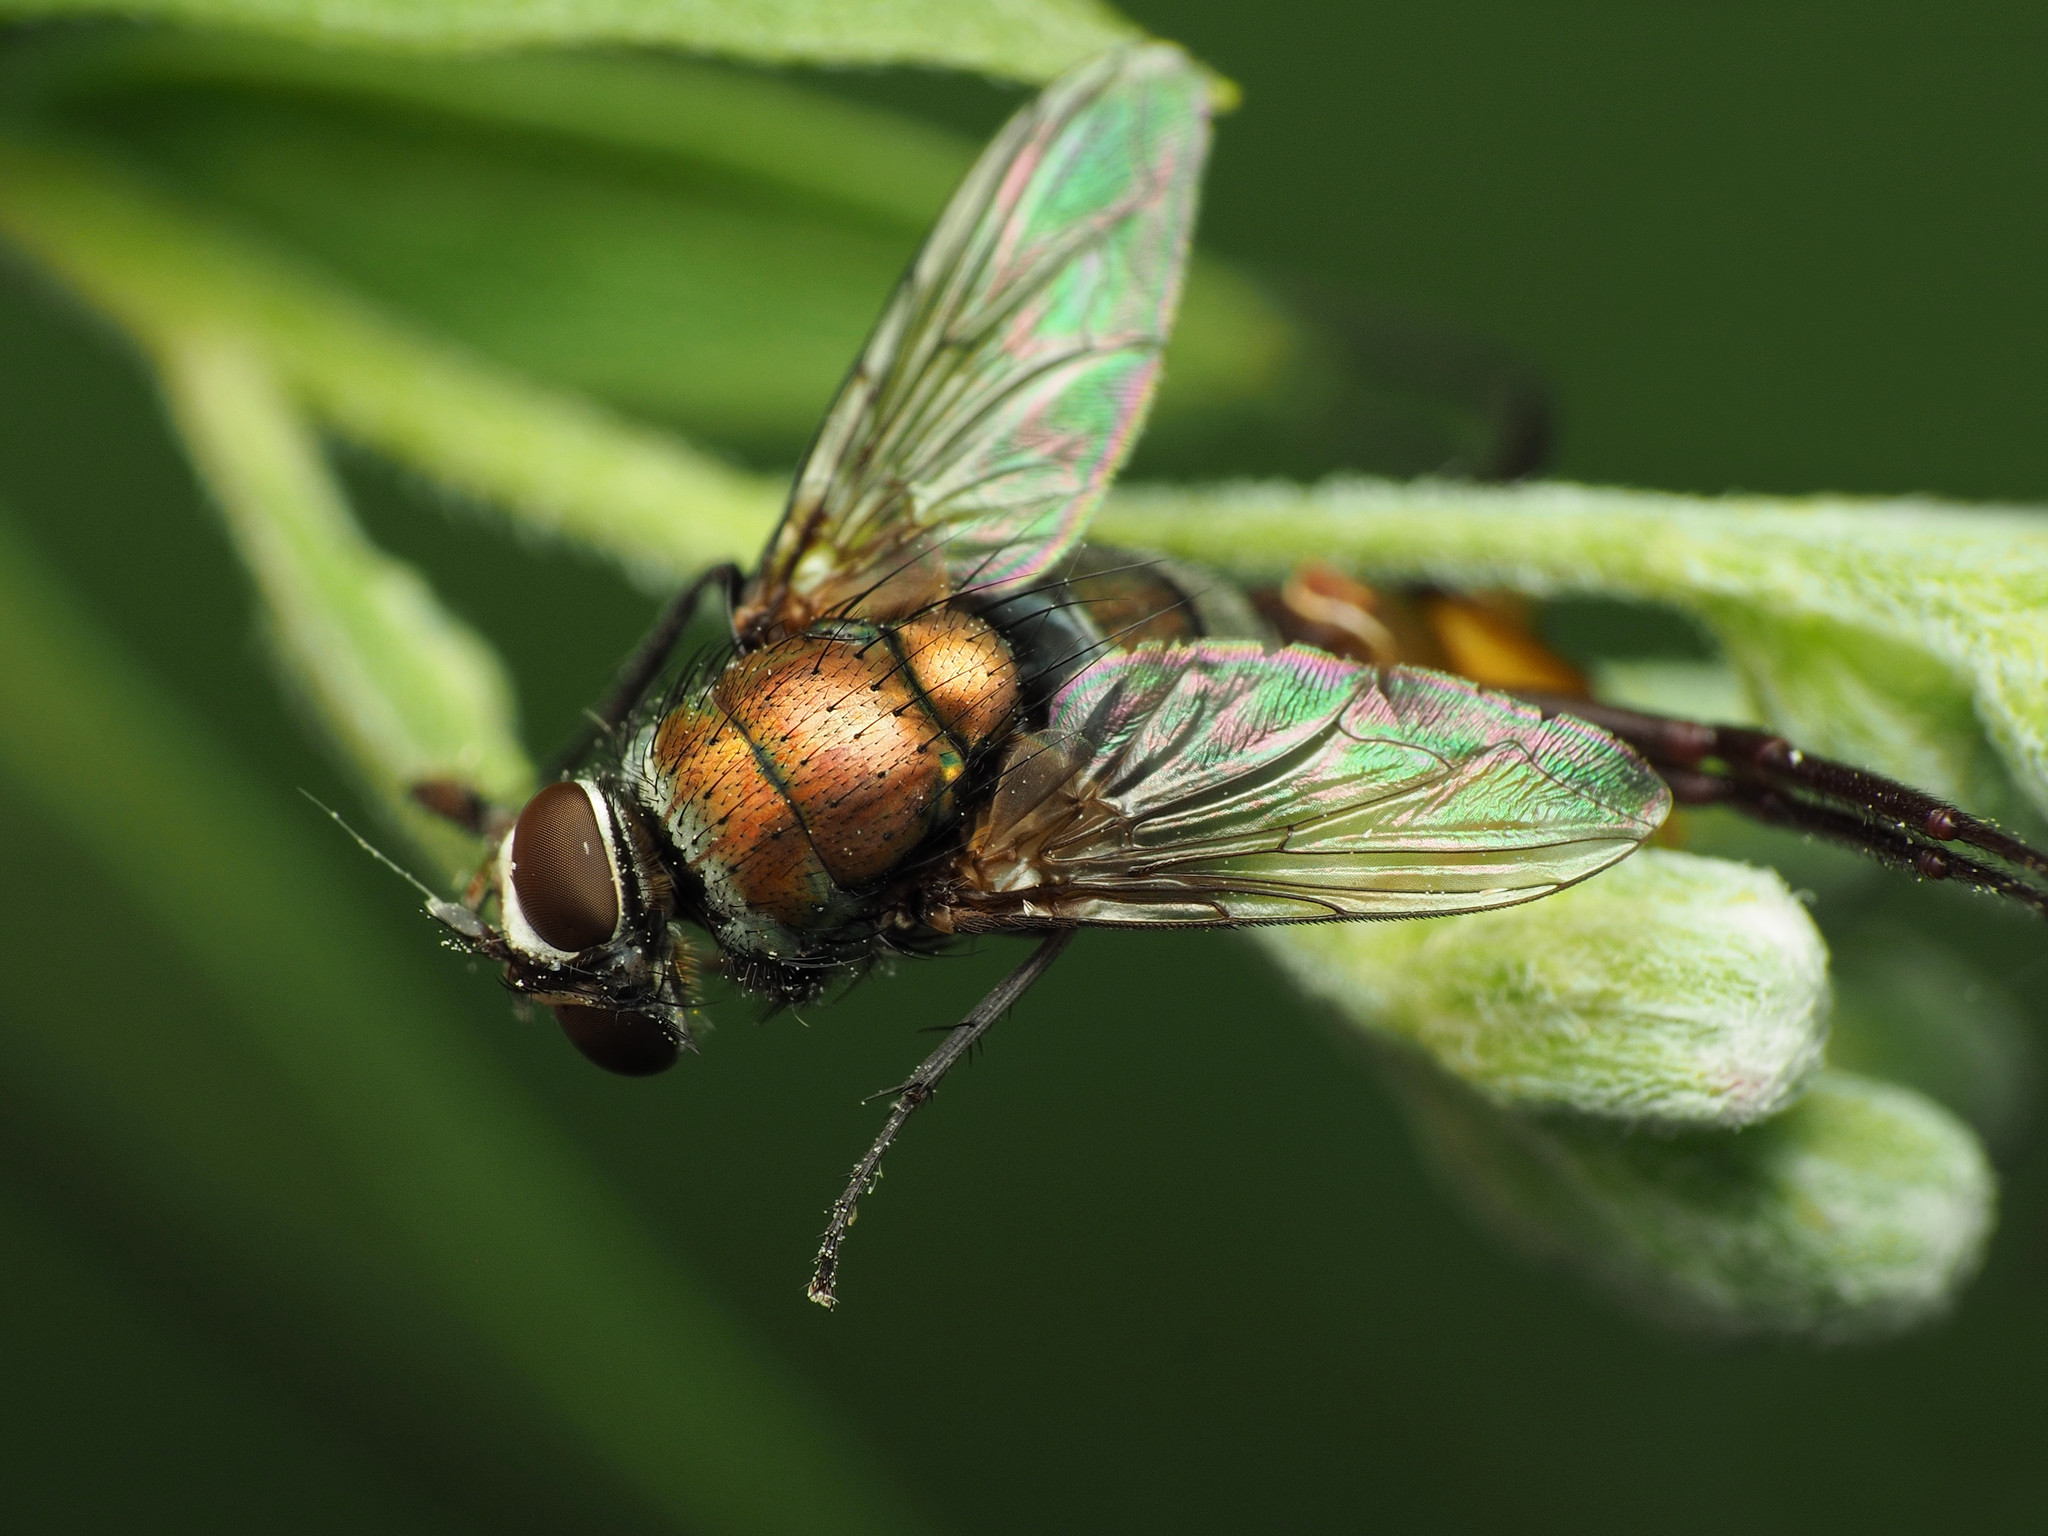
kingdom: Animalia
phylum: Arthropoda
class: Insecta
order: Diptera
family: Calliphoridae
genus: Lucilia
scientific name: Lucilia cuprina
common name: Sheep blow fly
